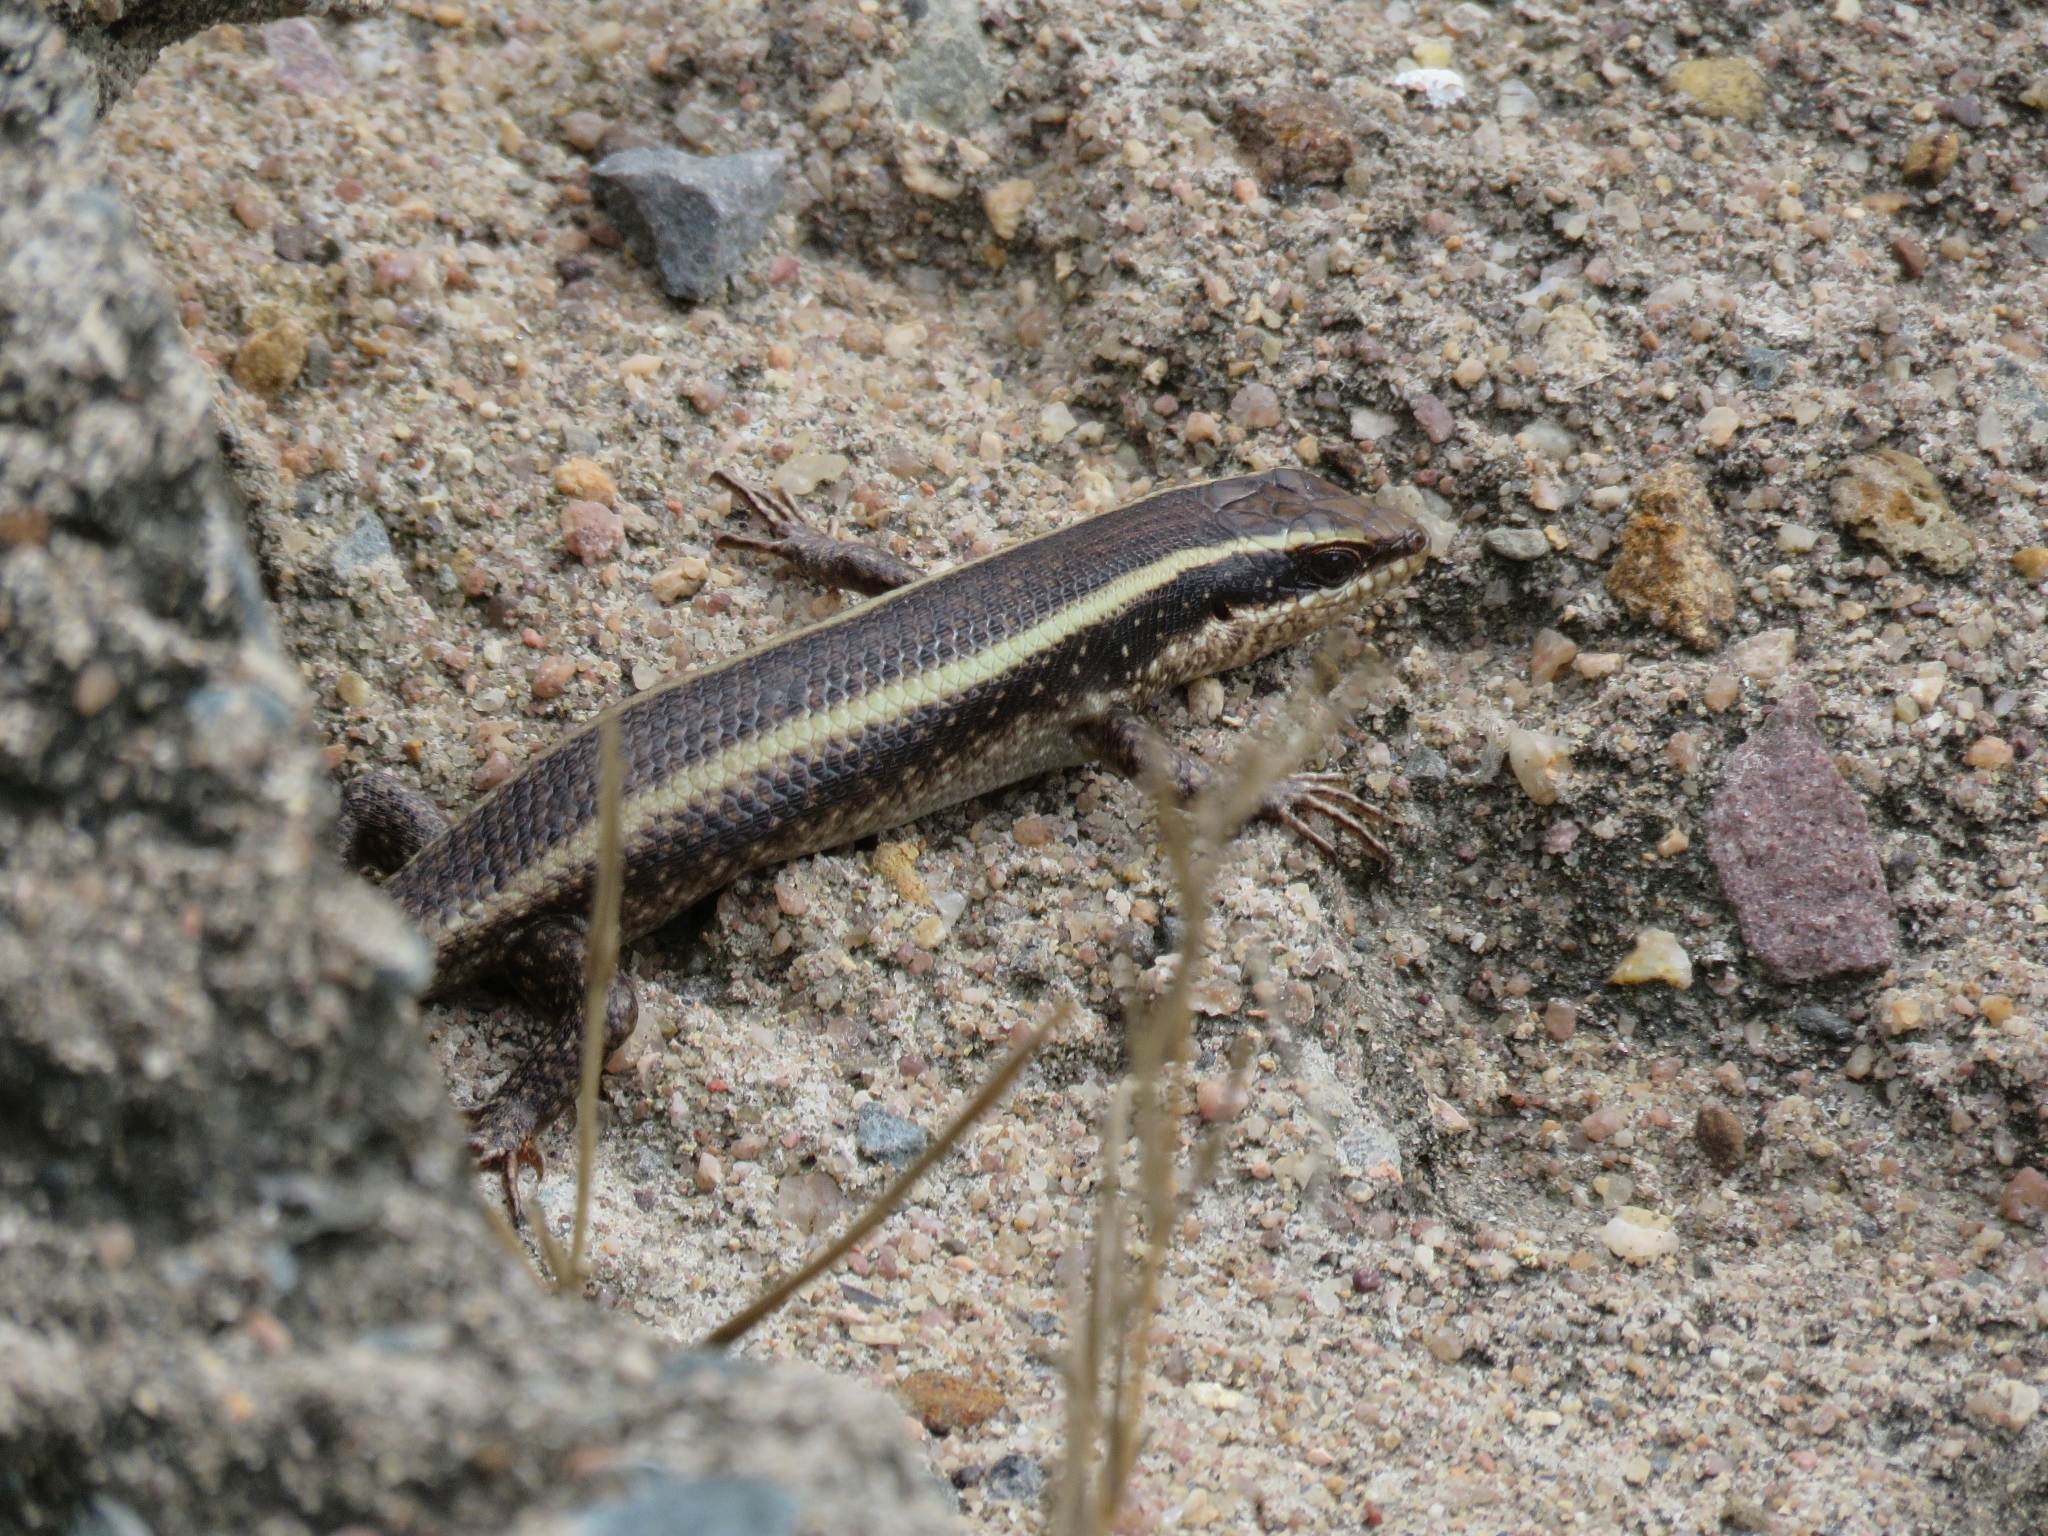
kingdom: Animalia
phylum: Chordata
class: Squamata
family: Scincidae
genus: Trachylepis
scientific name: Trachylepis striata
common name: African striped mabuya
